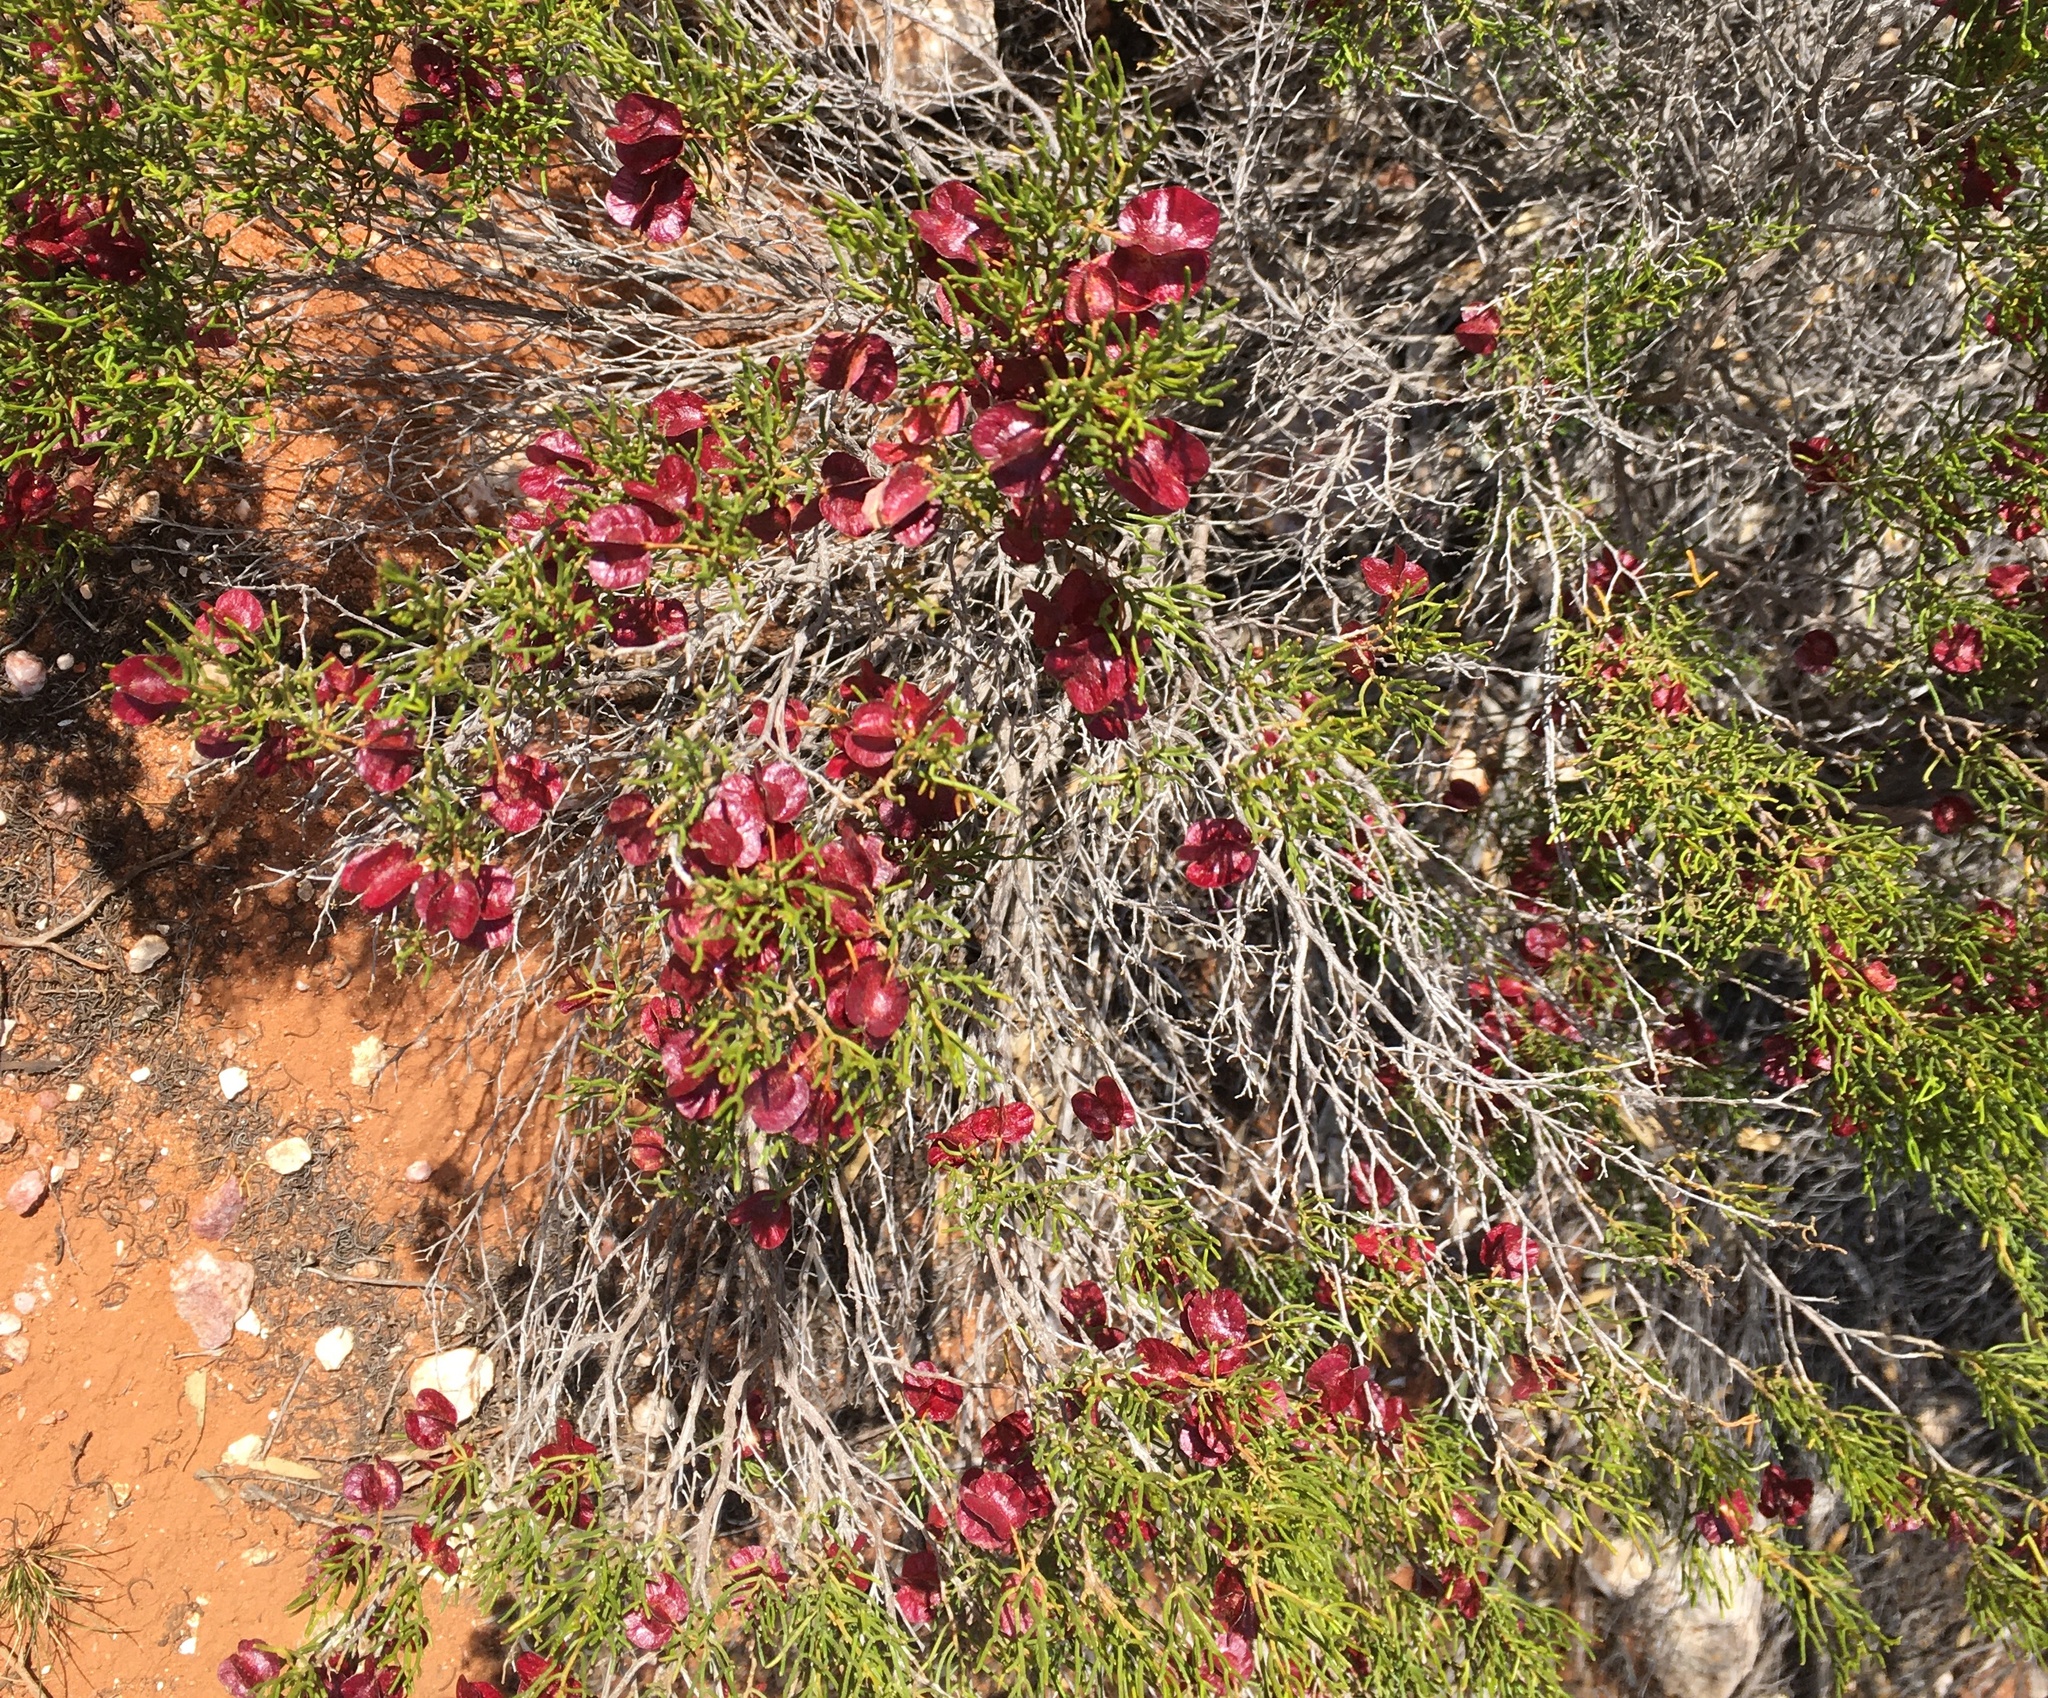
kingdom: Plantae
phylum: Tracheophyta
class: Magnoliopsida
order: Sapindales
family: Sapindaceae
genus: Dodonaea
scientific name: Dodonaea stenozyga
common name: Desert hopbush
